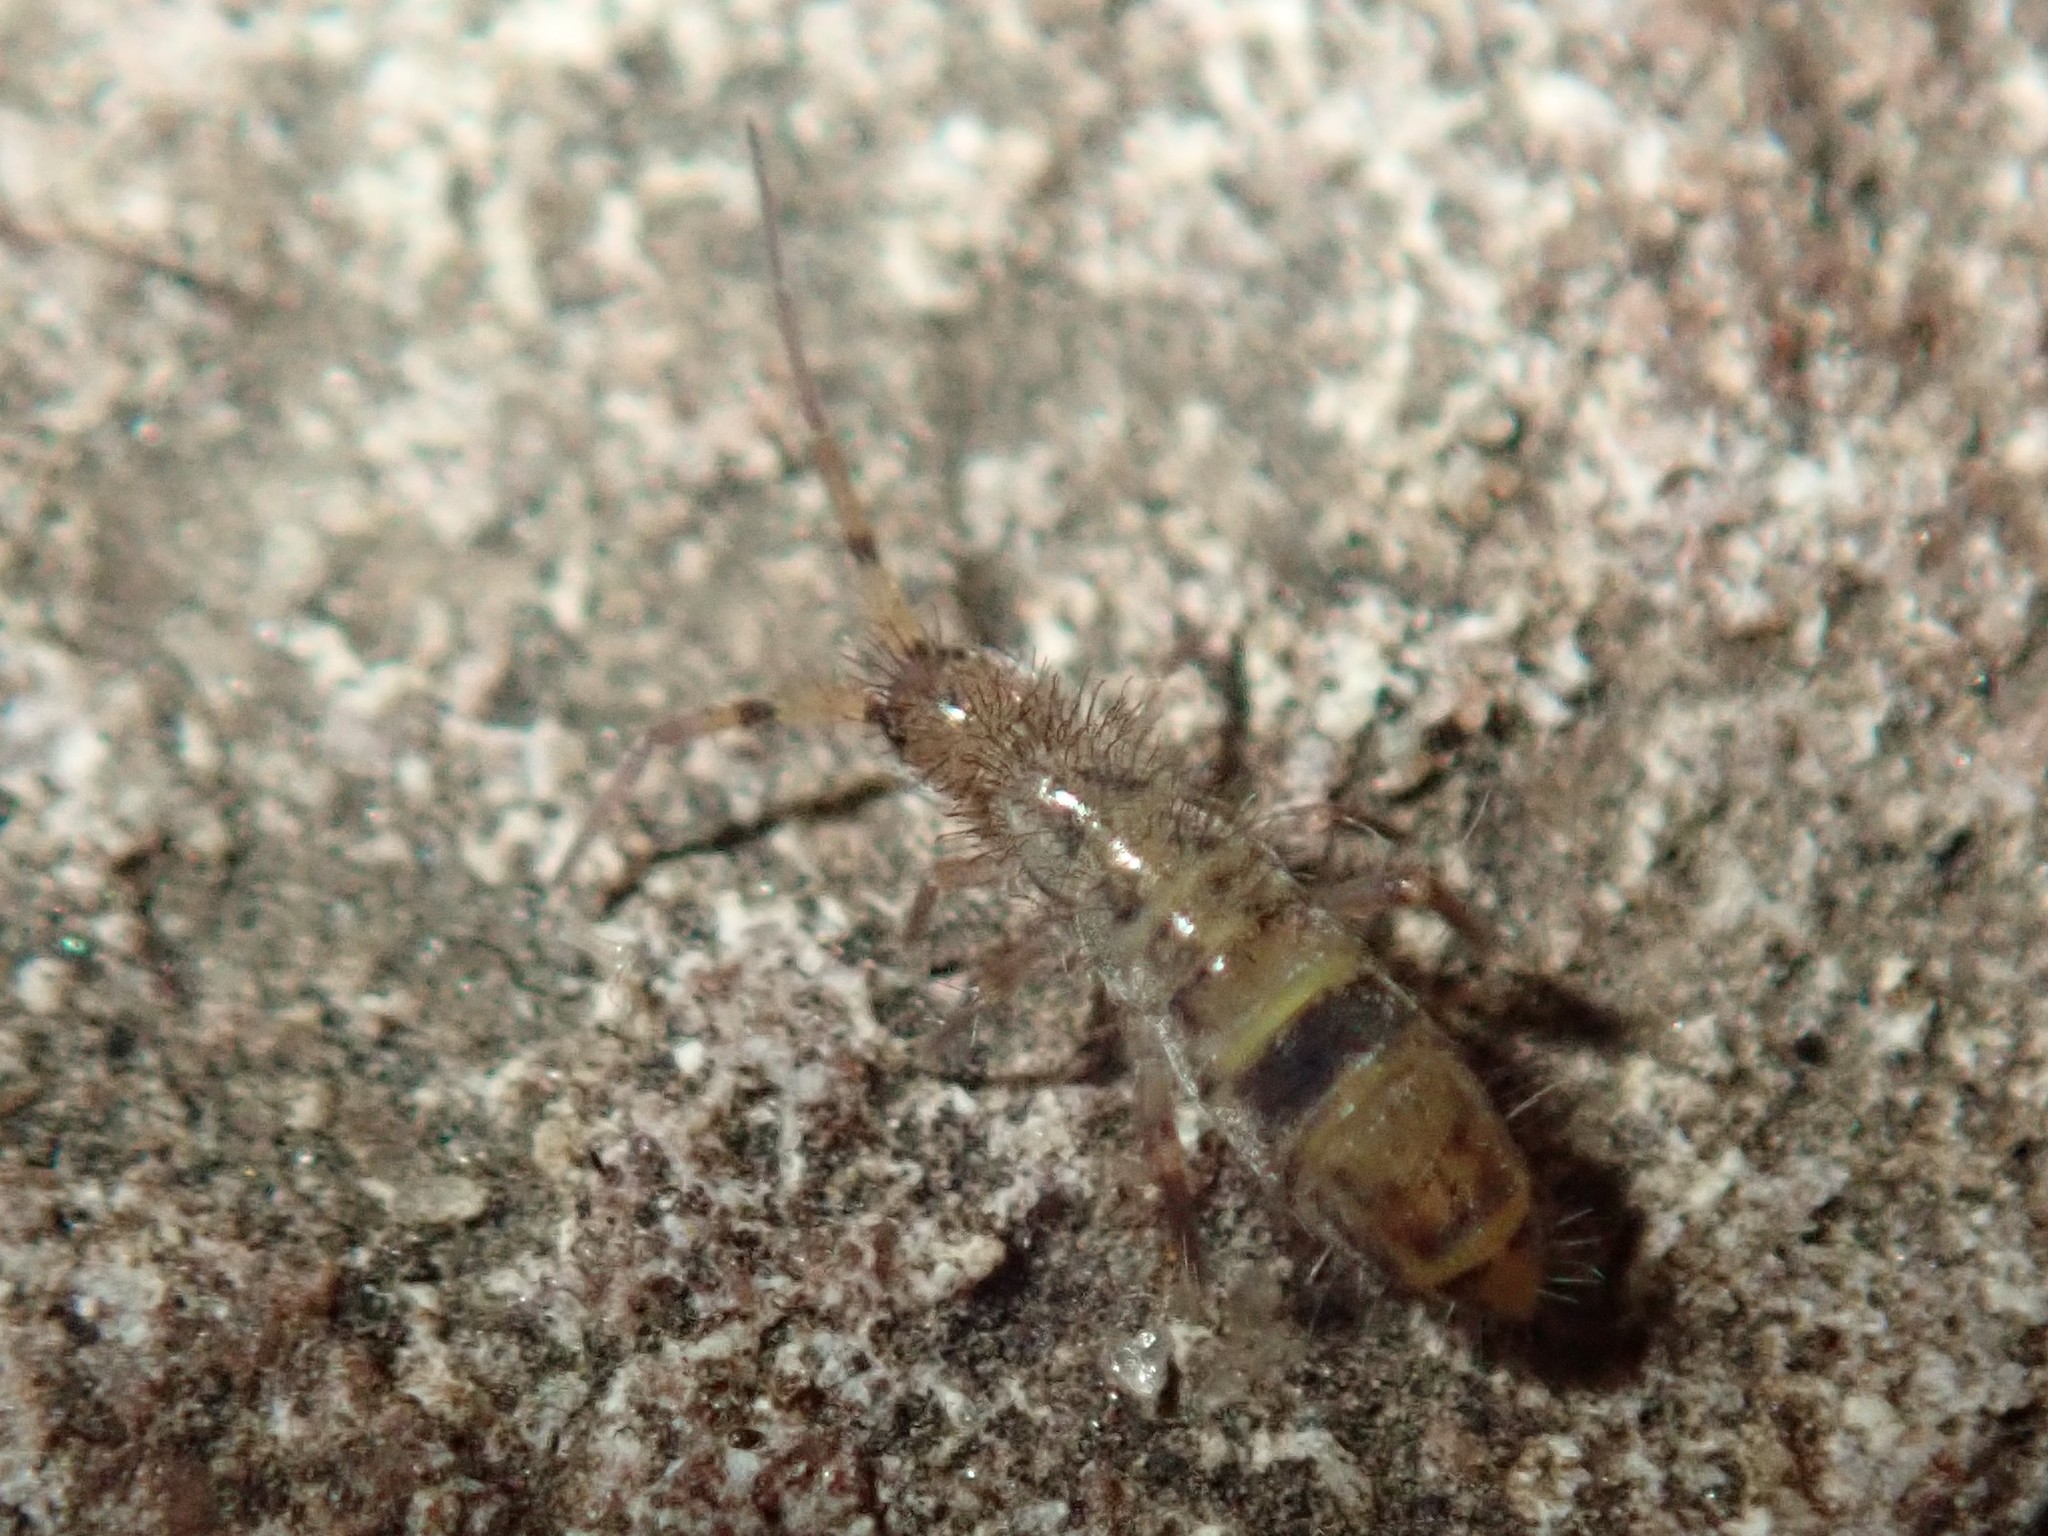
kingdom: Animalia
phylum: Arthropoda
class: Collembola
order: Entomobryomorpha
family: Orchesellidae
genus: Orchesella
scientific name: Orchesella cincta
